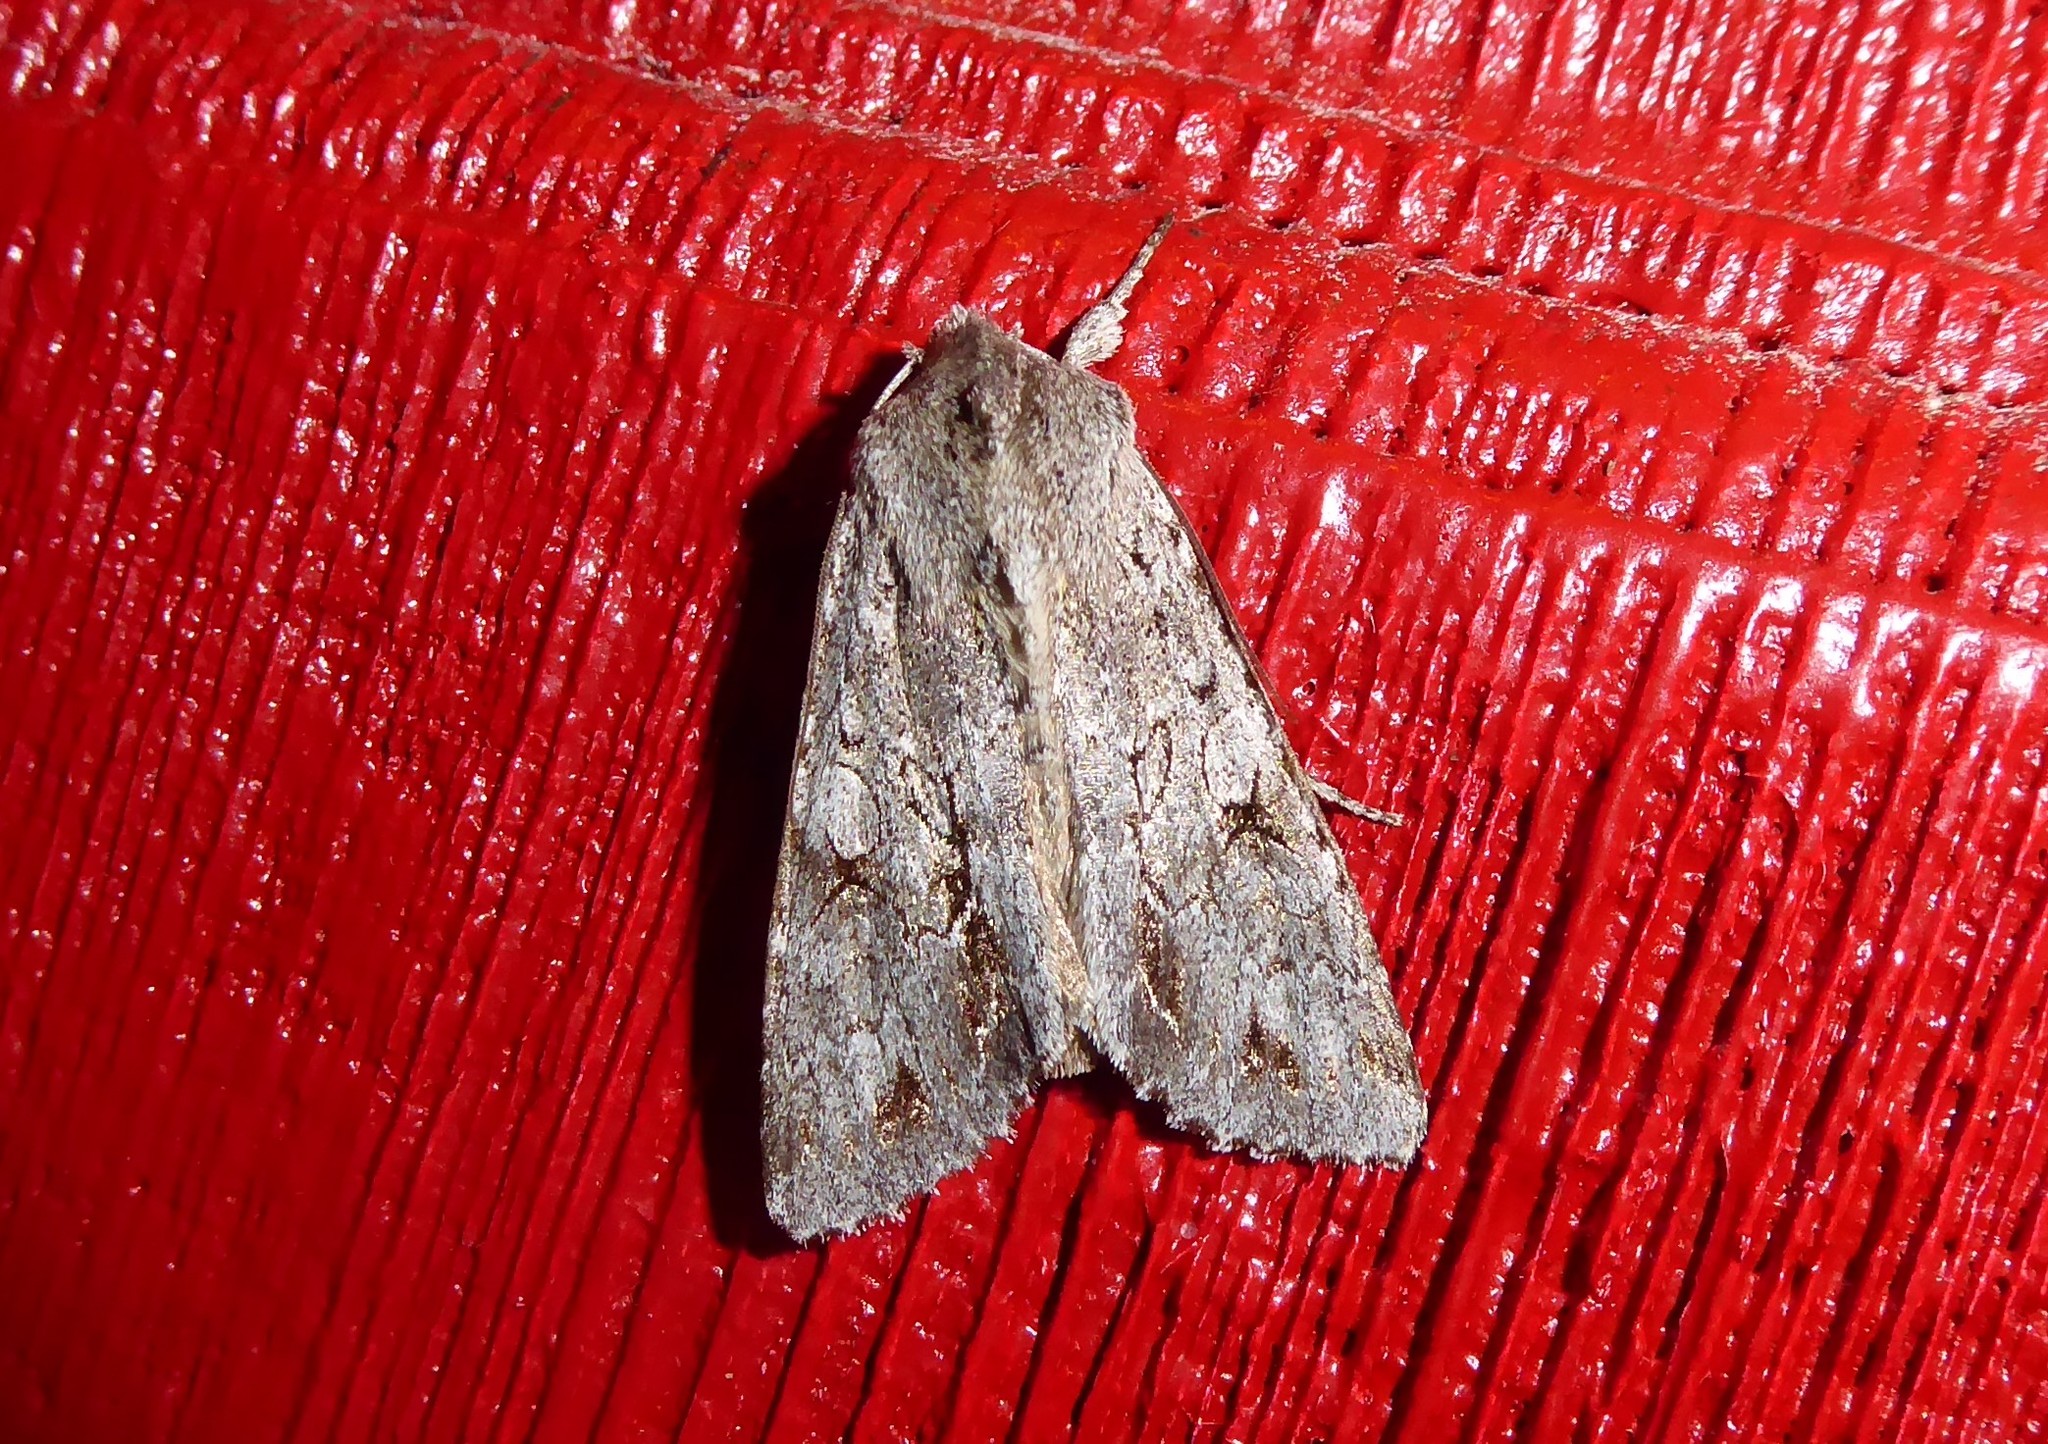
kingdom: Animalia
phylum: Arthropoda
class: Insecta
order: Lepidoptera
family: Noctuidae
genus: Ichneutica
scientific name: Ichneutica
